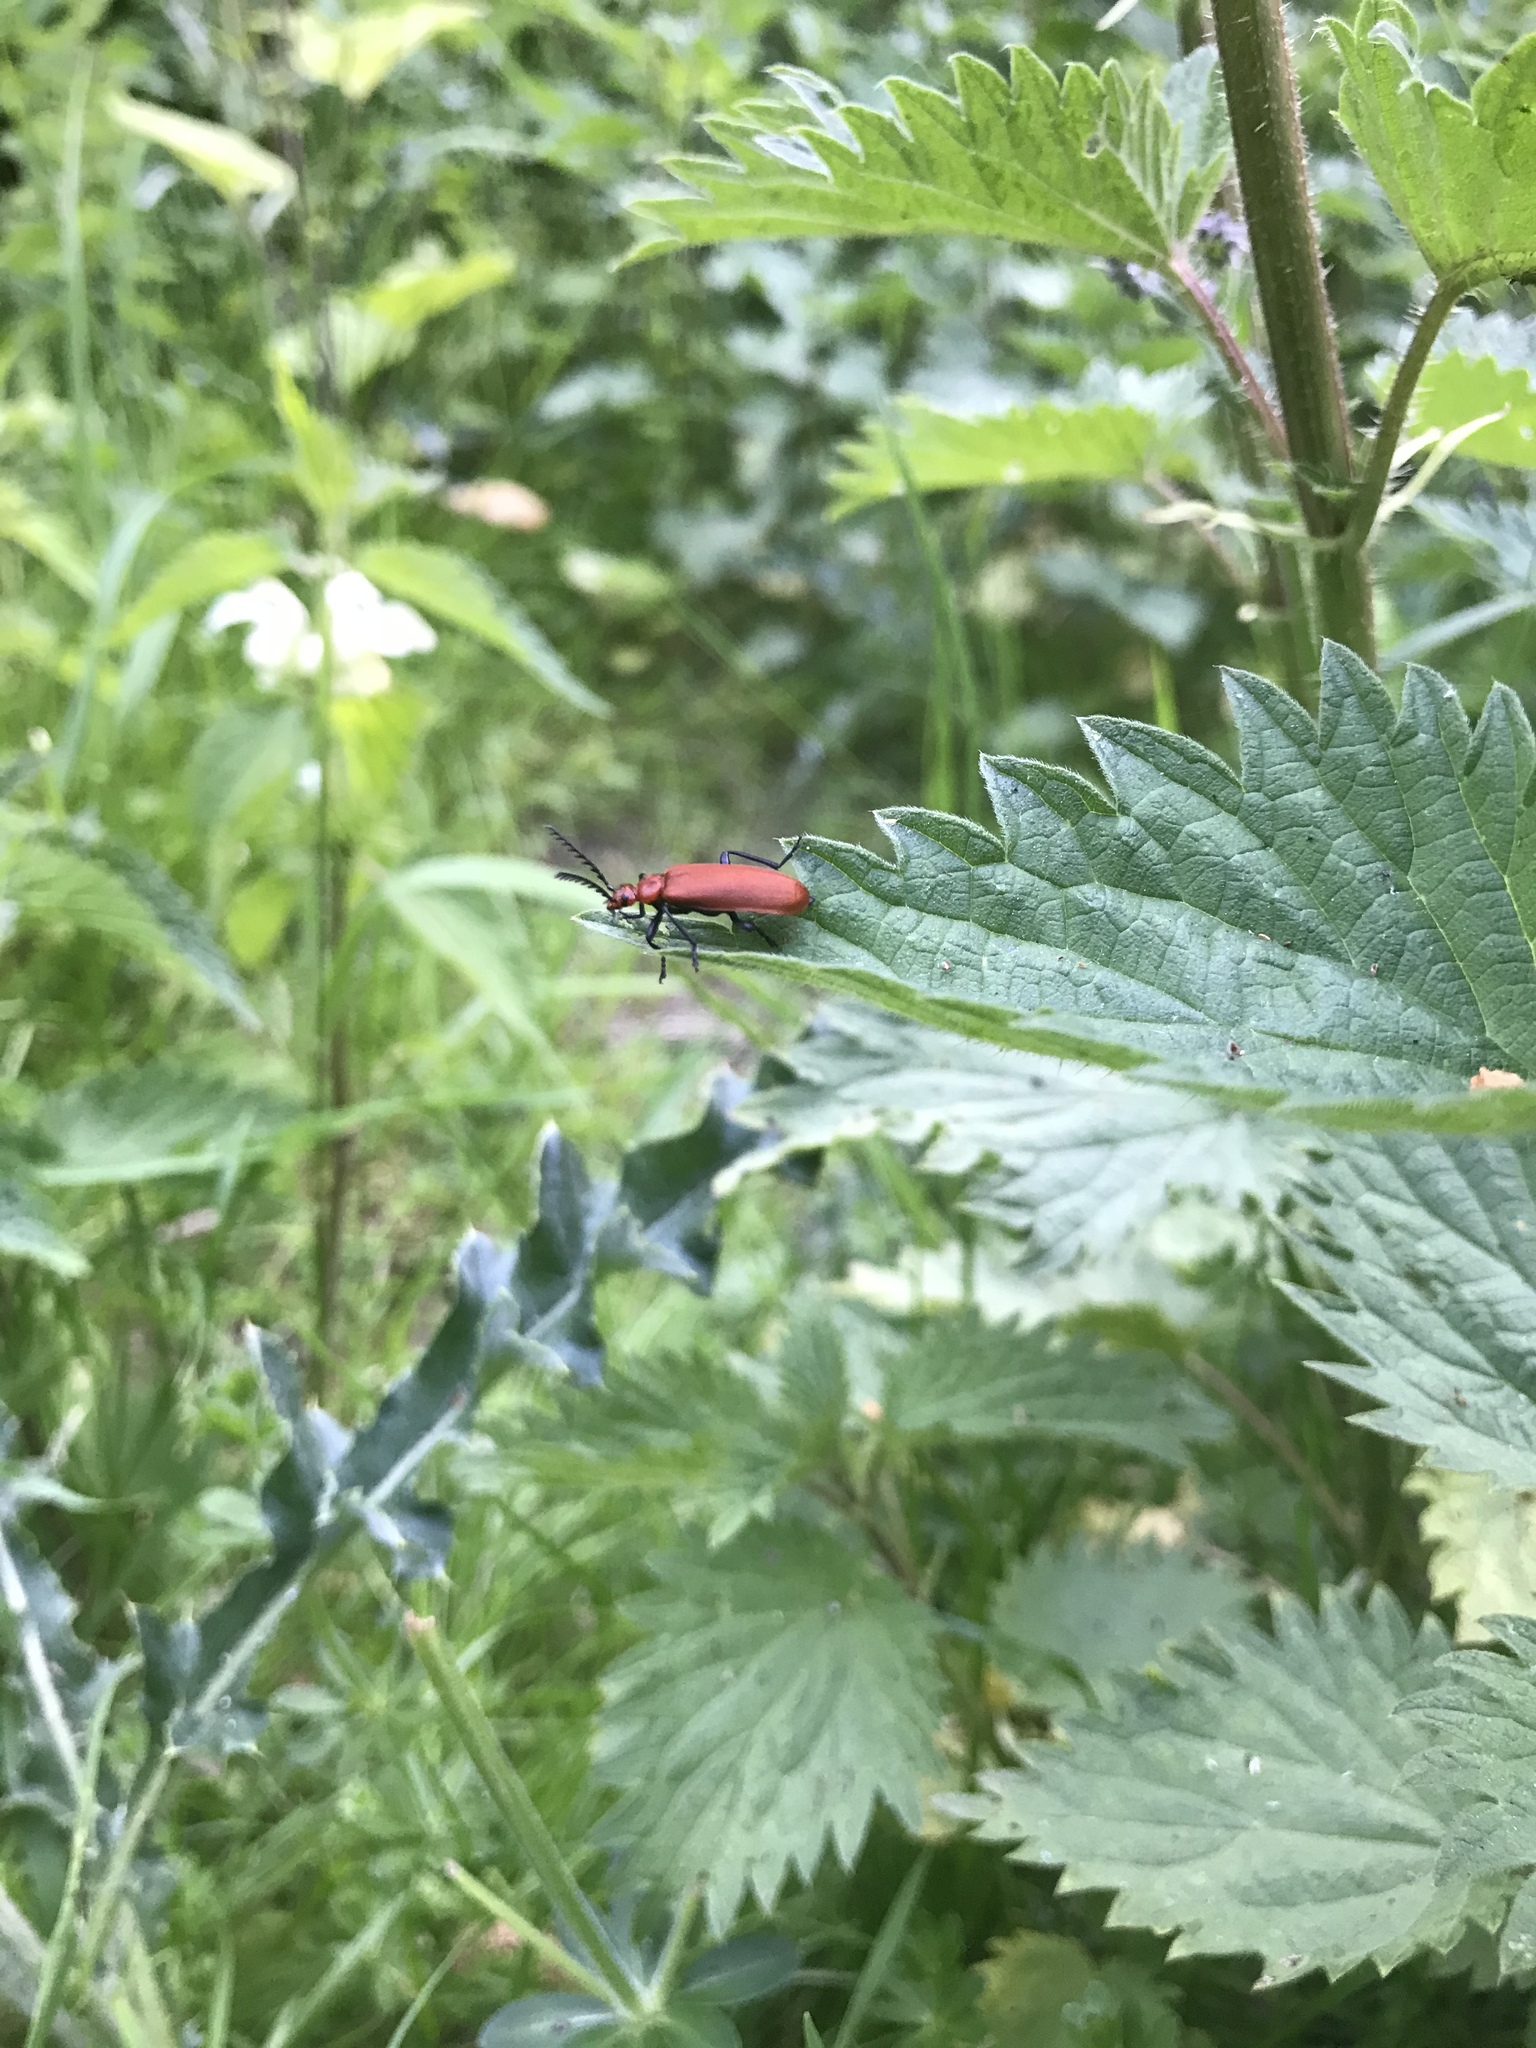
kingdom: Animalia
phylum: Arthropoda
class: Insecta
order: Coleoptera
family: Pyrochroidae
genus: Pyrochroa
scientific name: Pyrochroa serraticornis
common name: Red-headed cardinal beetle
